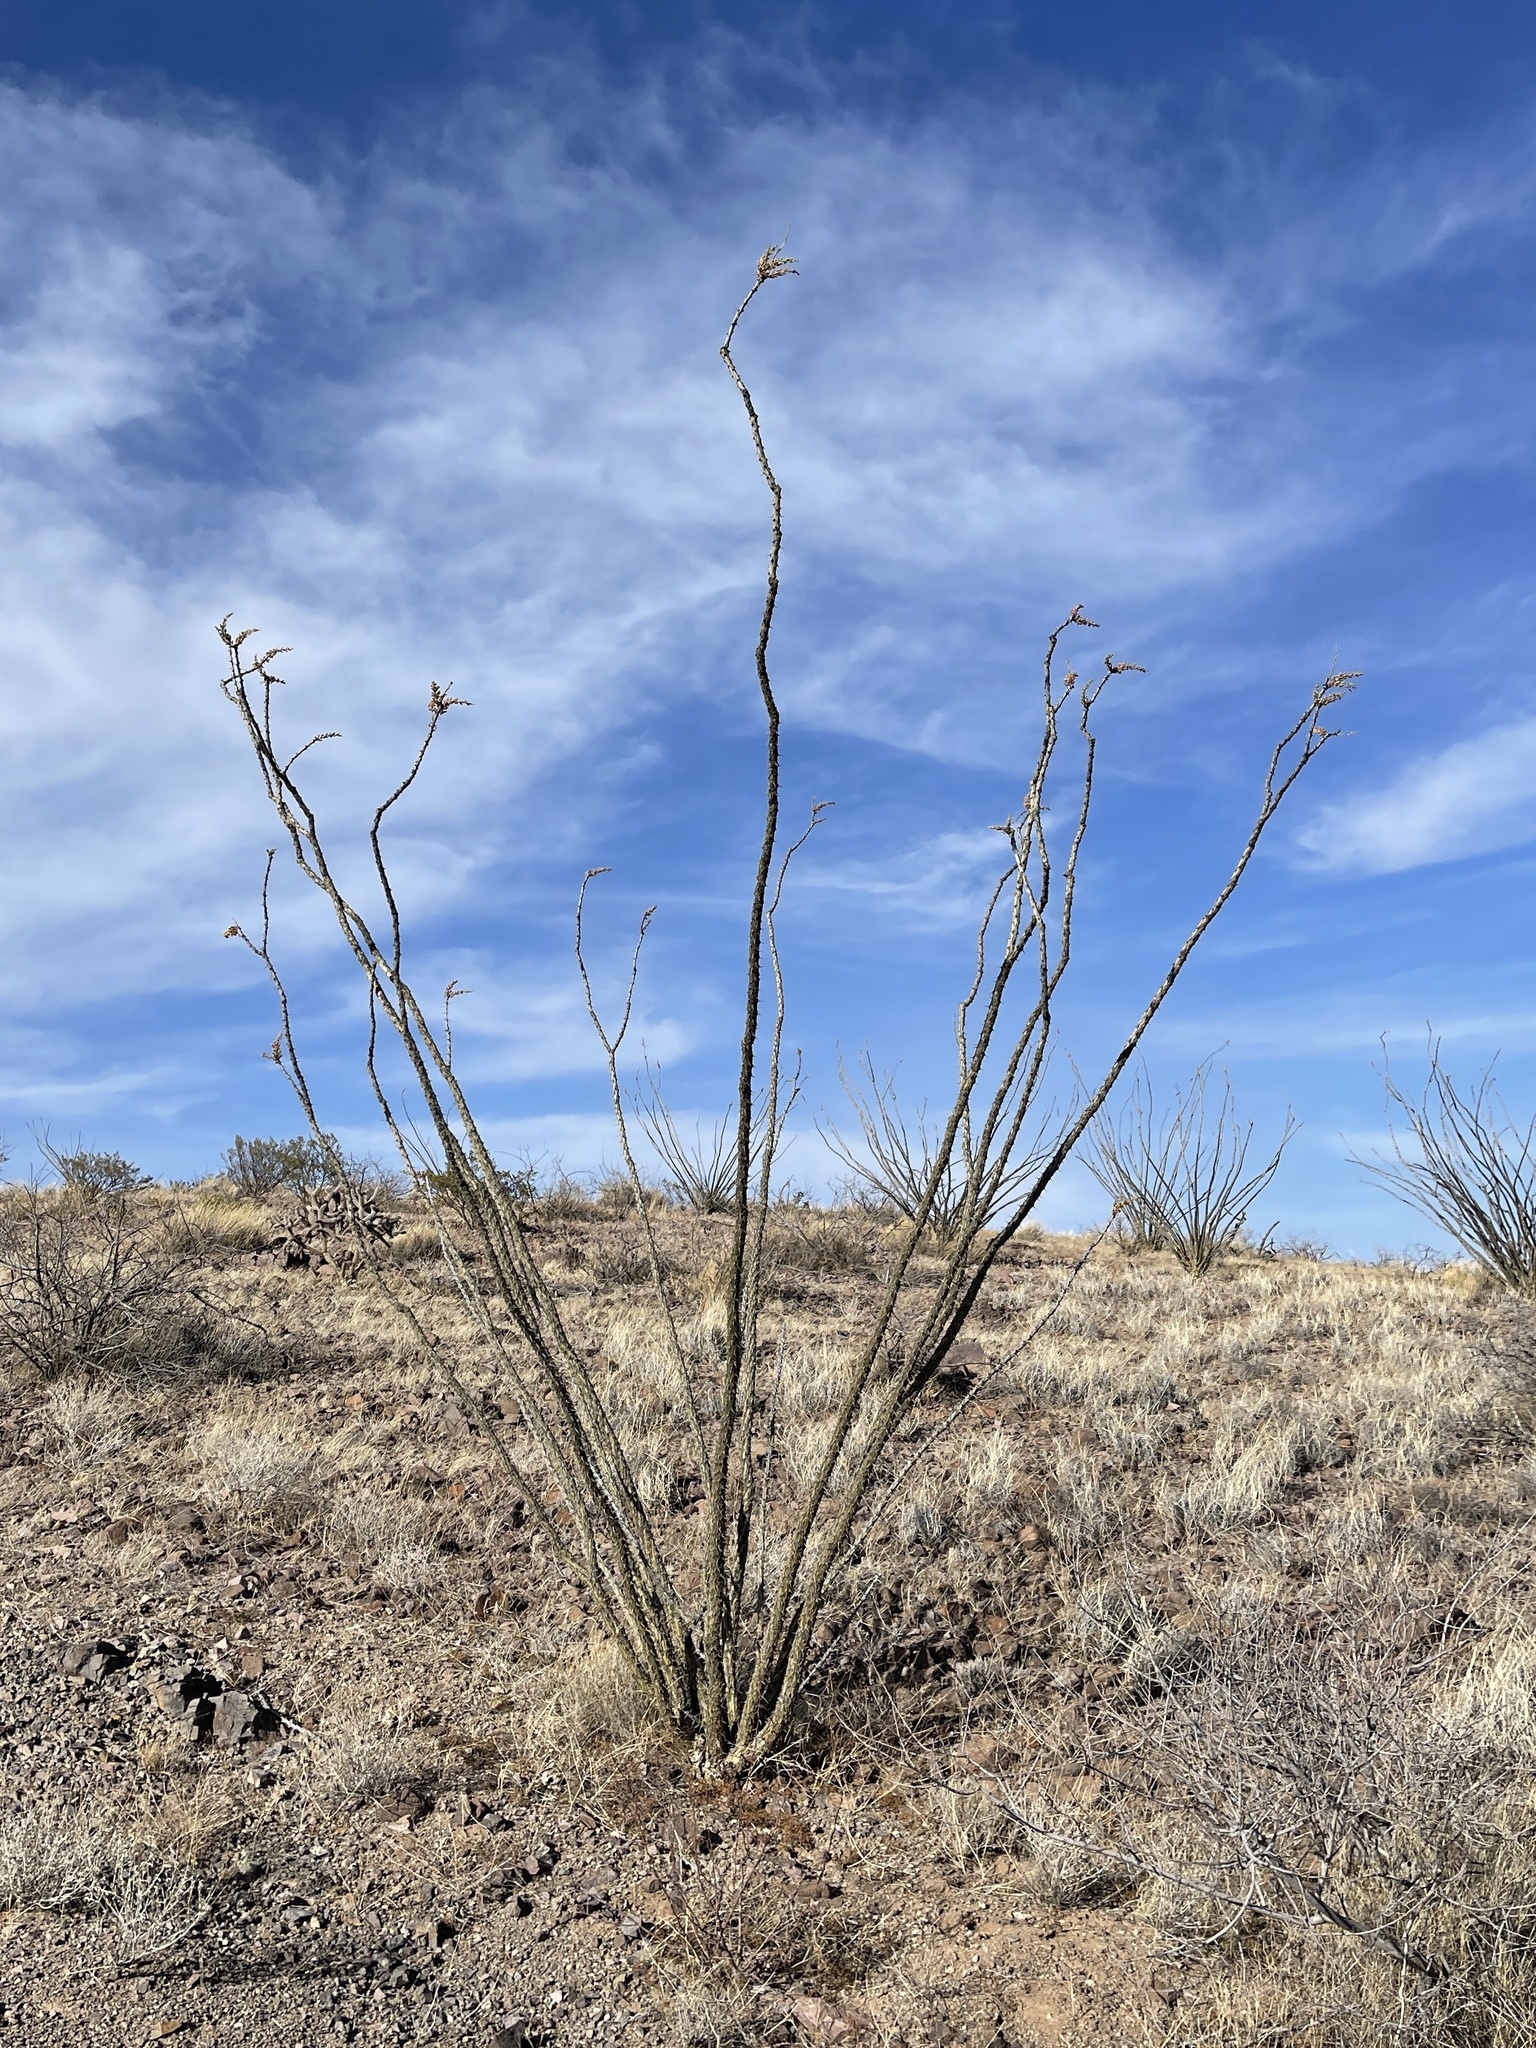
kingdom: Plantae
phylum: Tracheophyta
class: Magnoliopsida
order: Ericales
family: Fouquieriaceae
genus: Fouquieria
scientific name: Fouquieria splendens
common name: Vine-cactus
